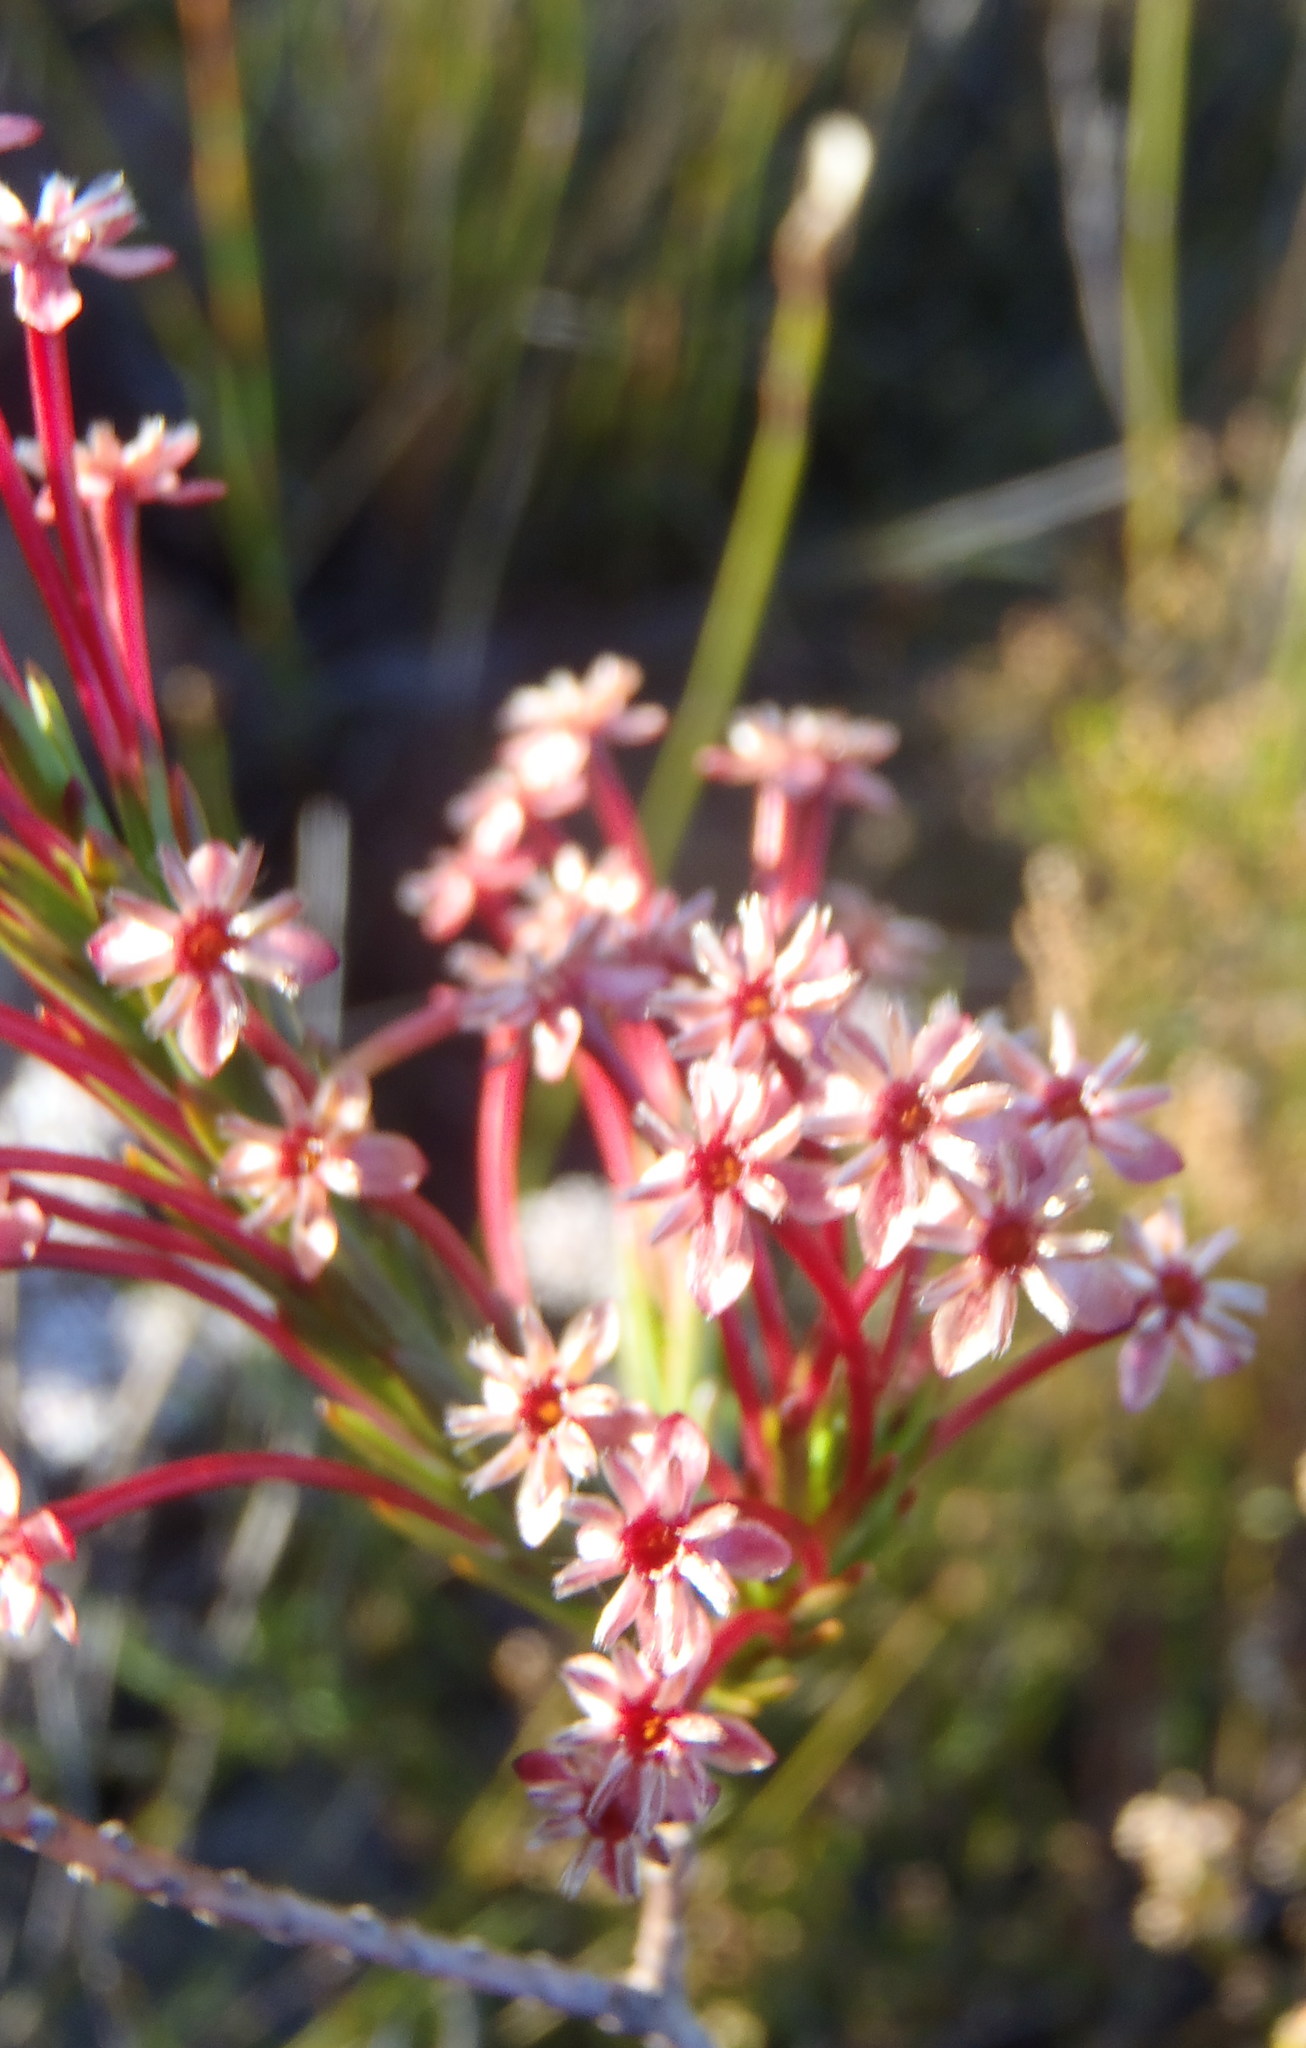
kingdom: Plantae
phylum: Tracheophyta
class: Magnoliopsida
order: Malvales
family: Thymelaeaceae
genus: Struthiola
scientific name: Struthiola macowanii
